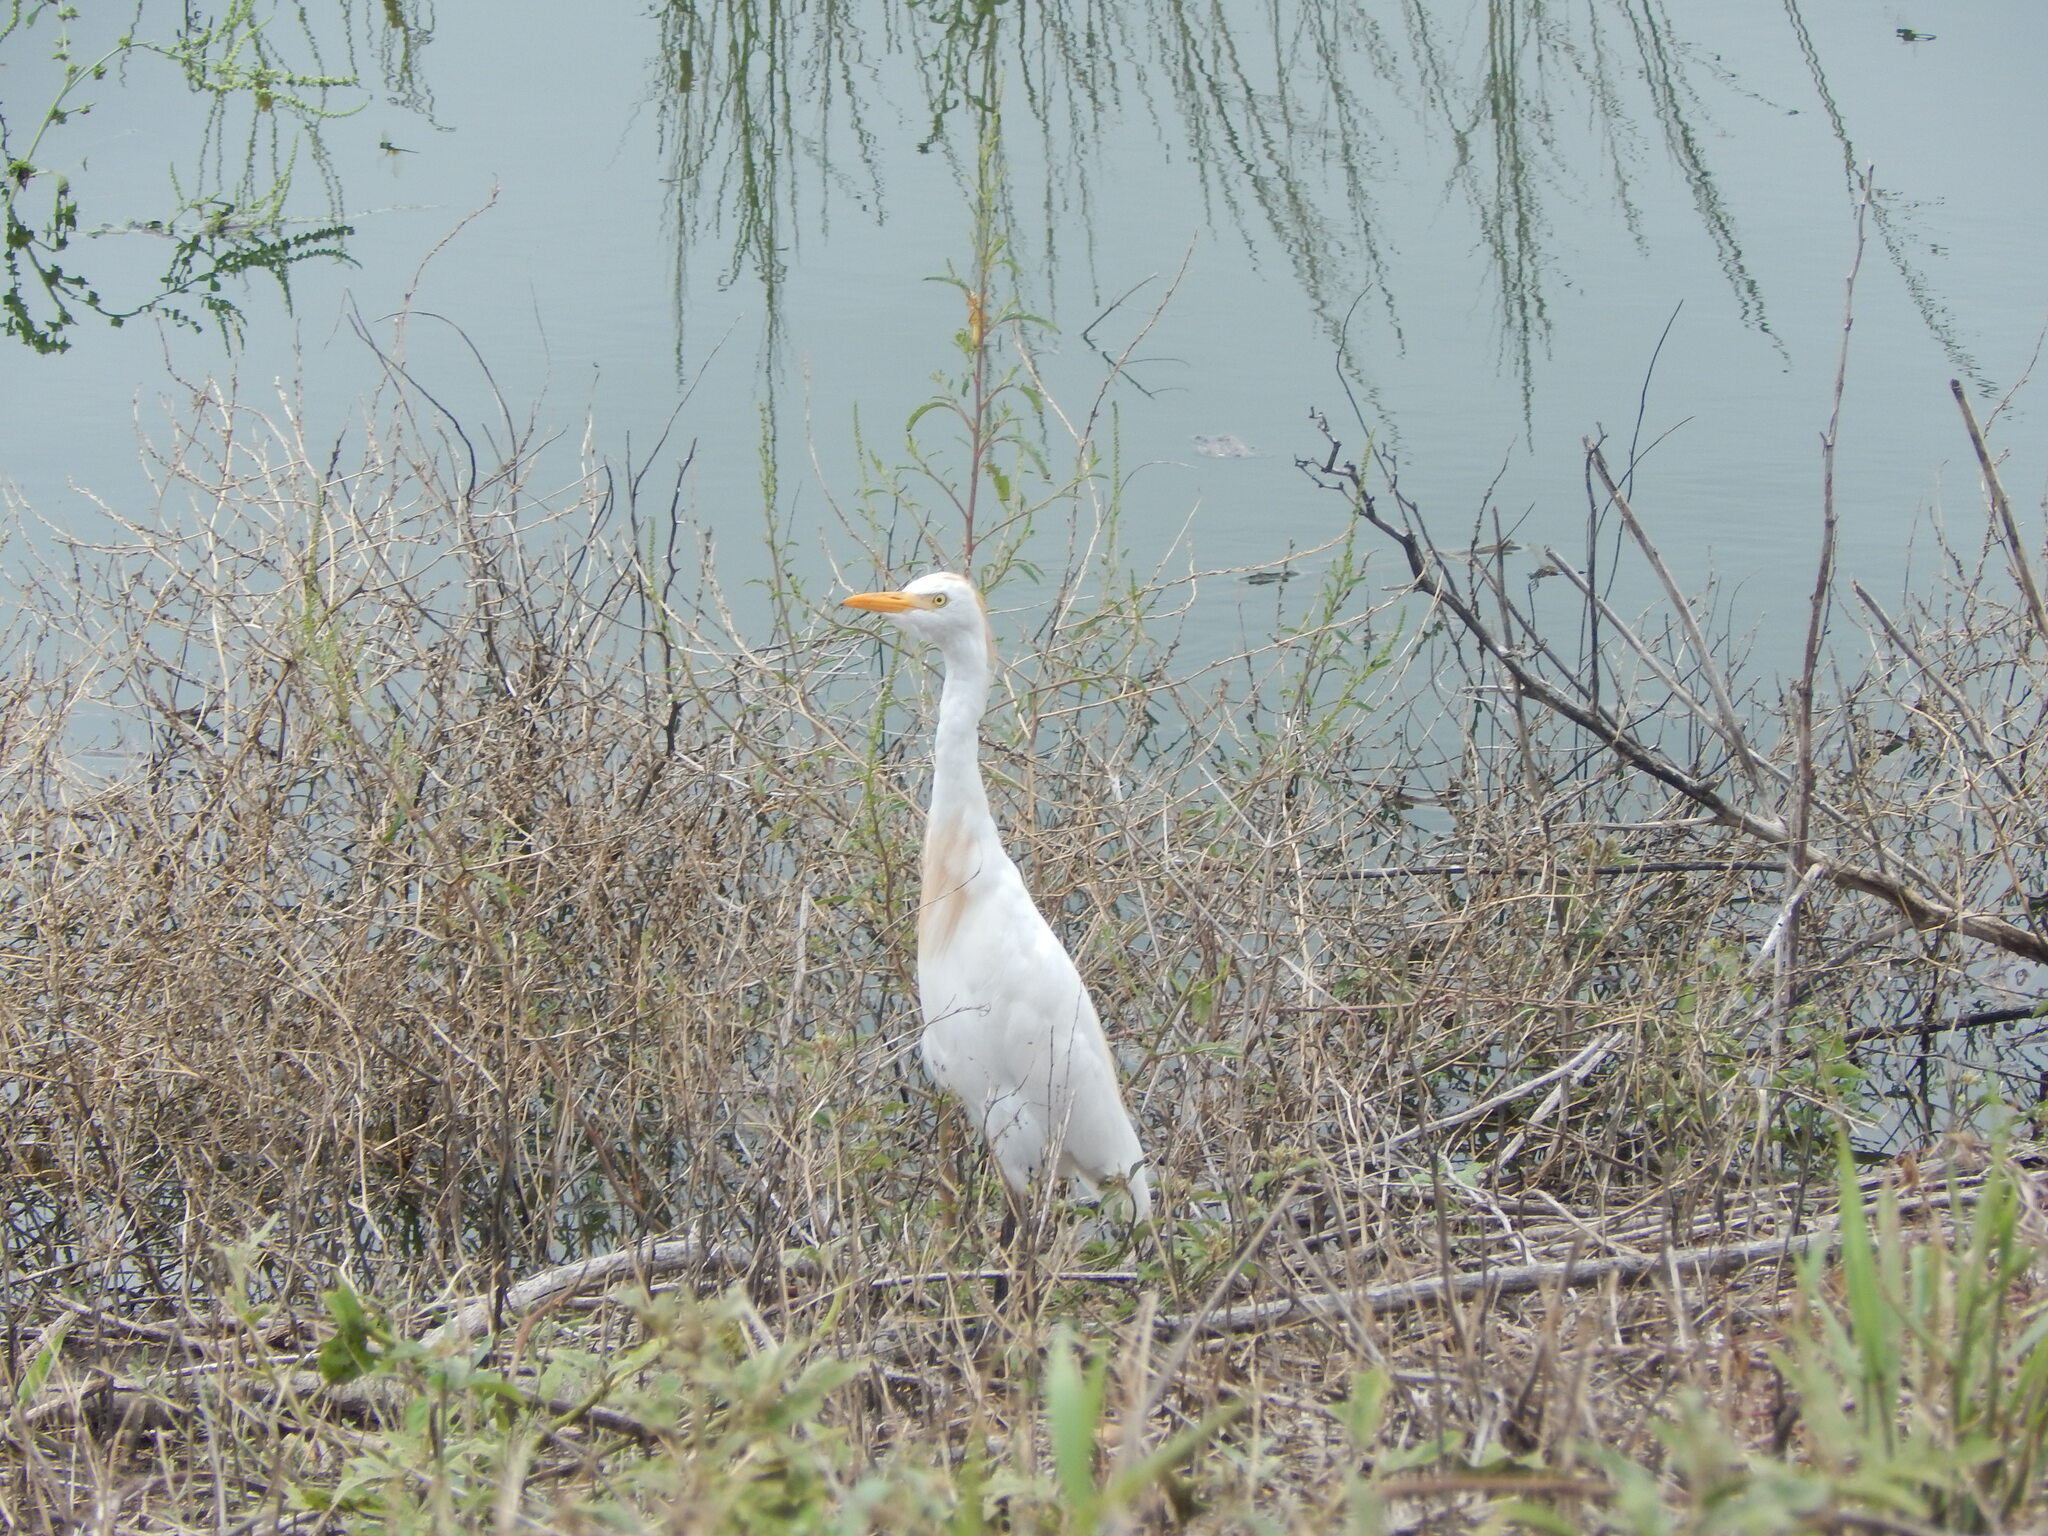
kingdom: Animalia
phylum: Chordata
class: Aves
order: Pelecaniformes
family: Ardeidae
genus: Bubulcus
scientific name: Bubulcus ibis
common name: Cattle egret
